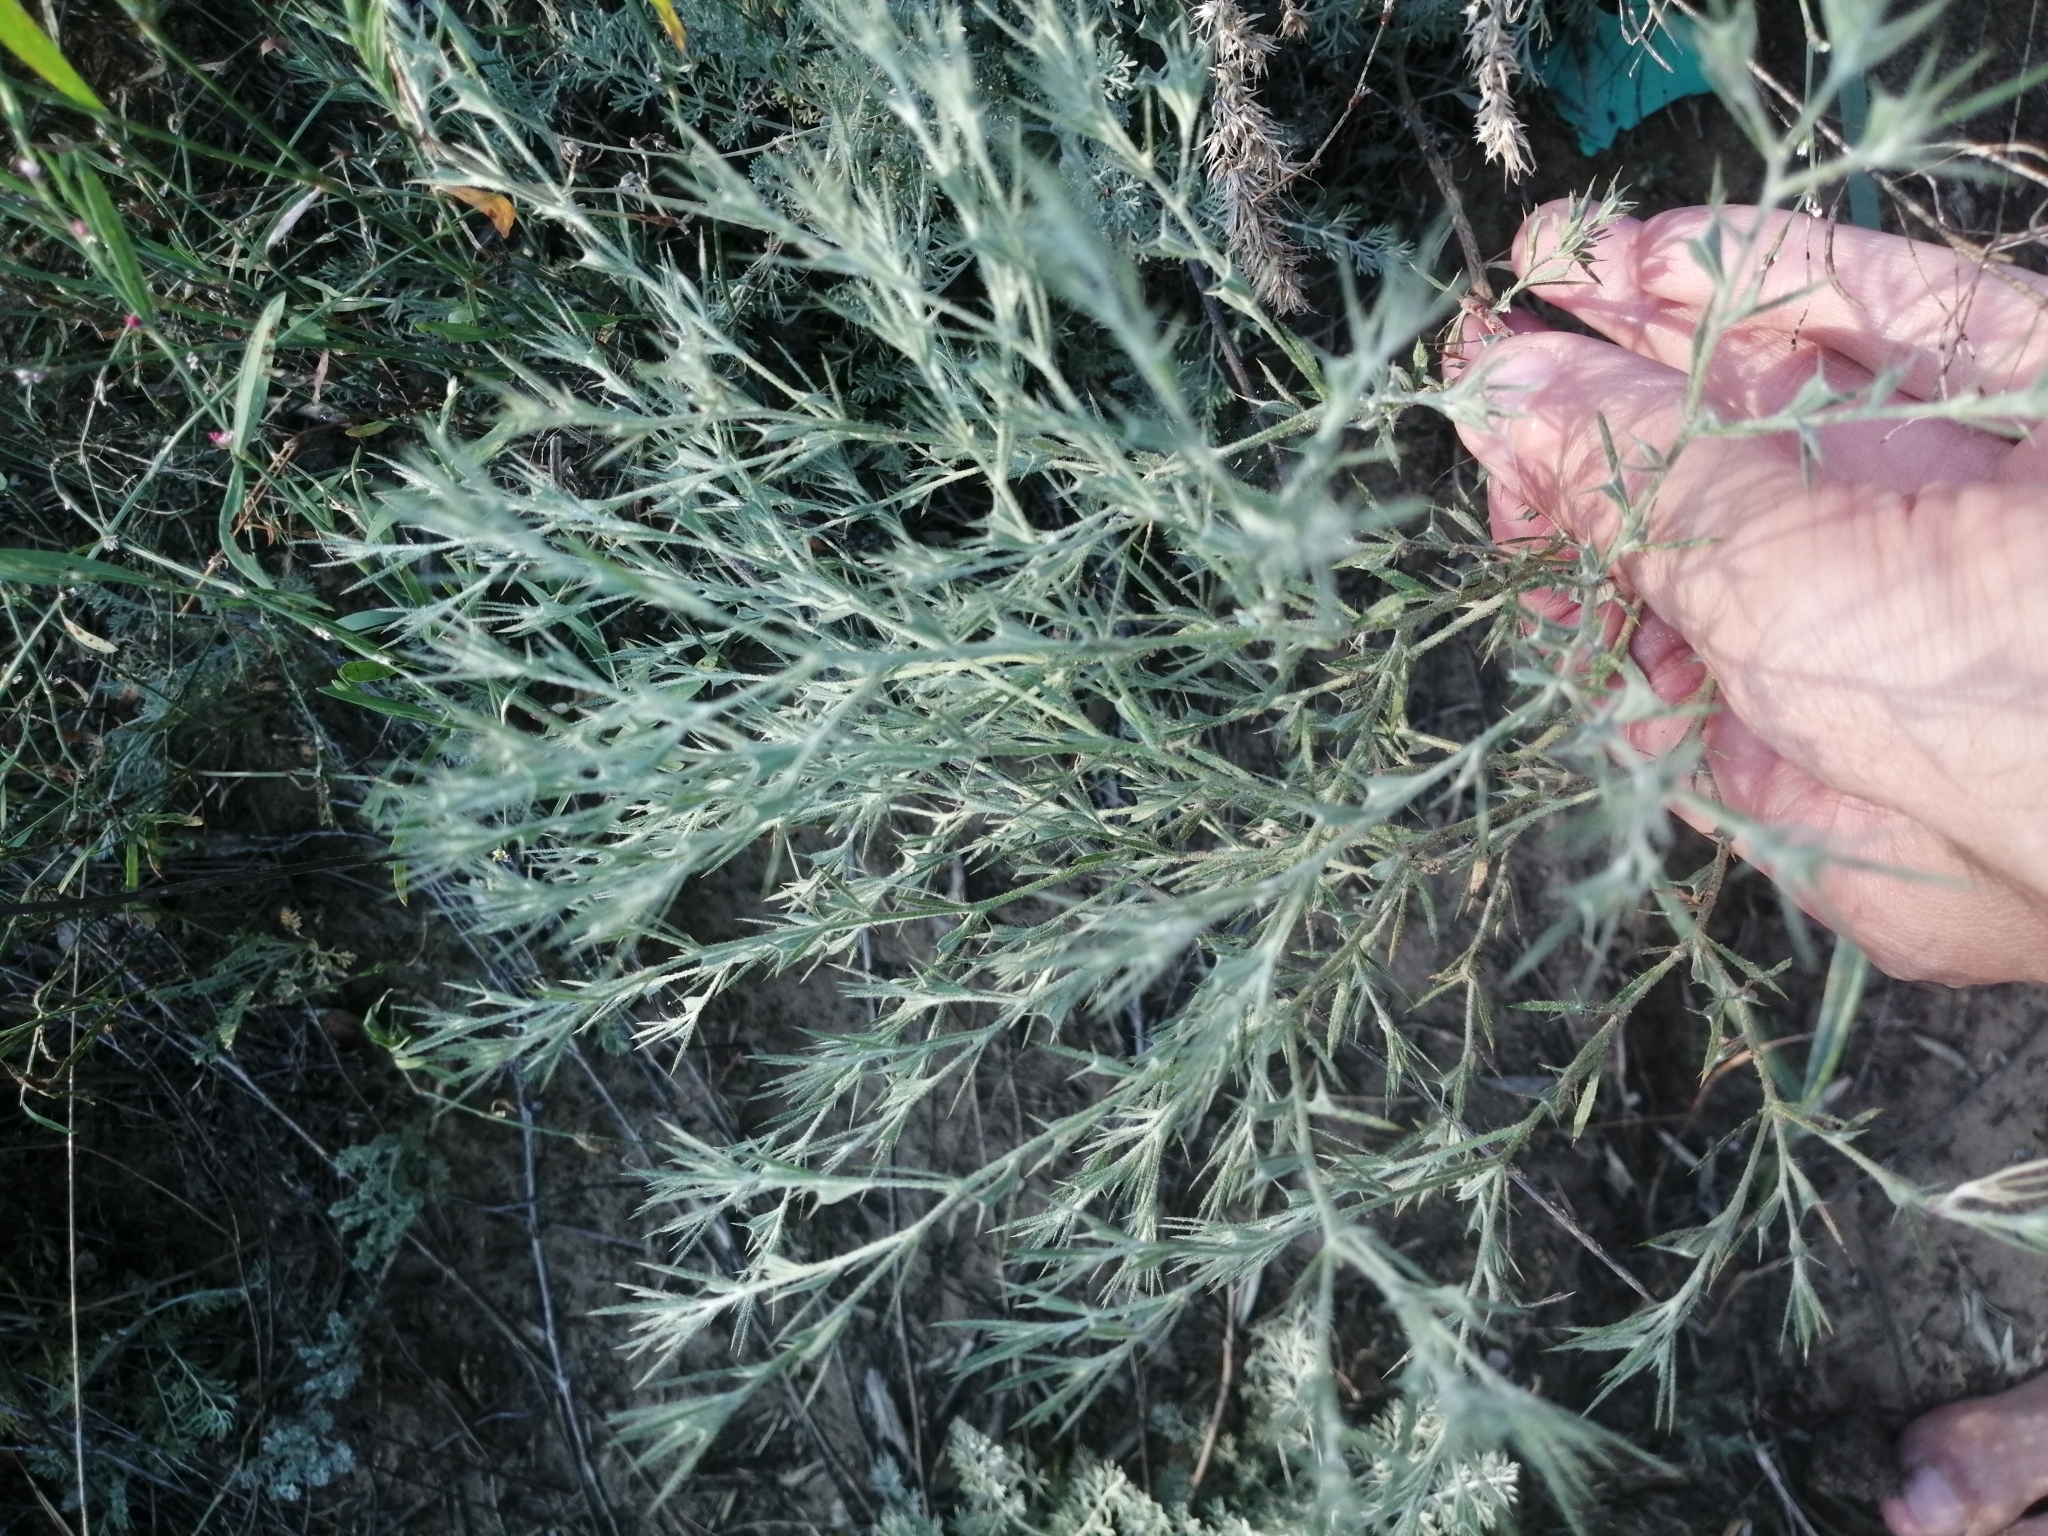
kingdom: Plantae
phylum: Tracheophyta
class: Magnoliopsida
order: Caryophyllales
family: Amaranthaceae
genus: Ceratocarpus
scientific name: Ceratocarpus arenarius
